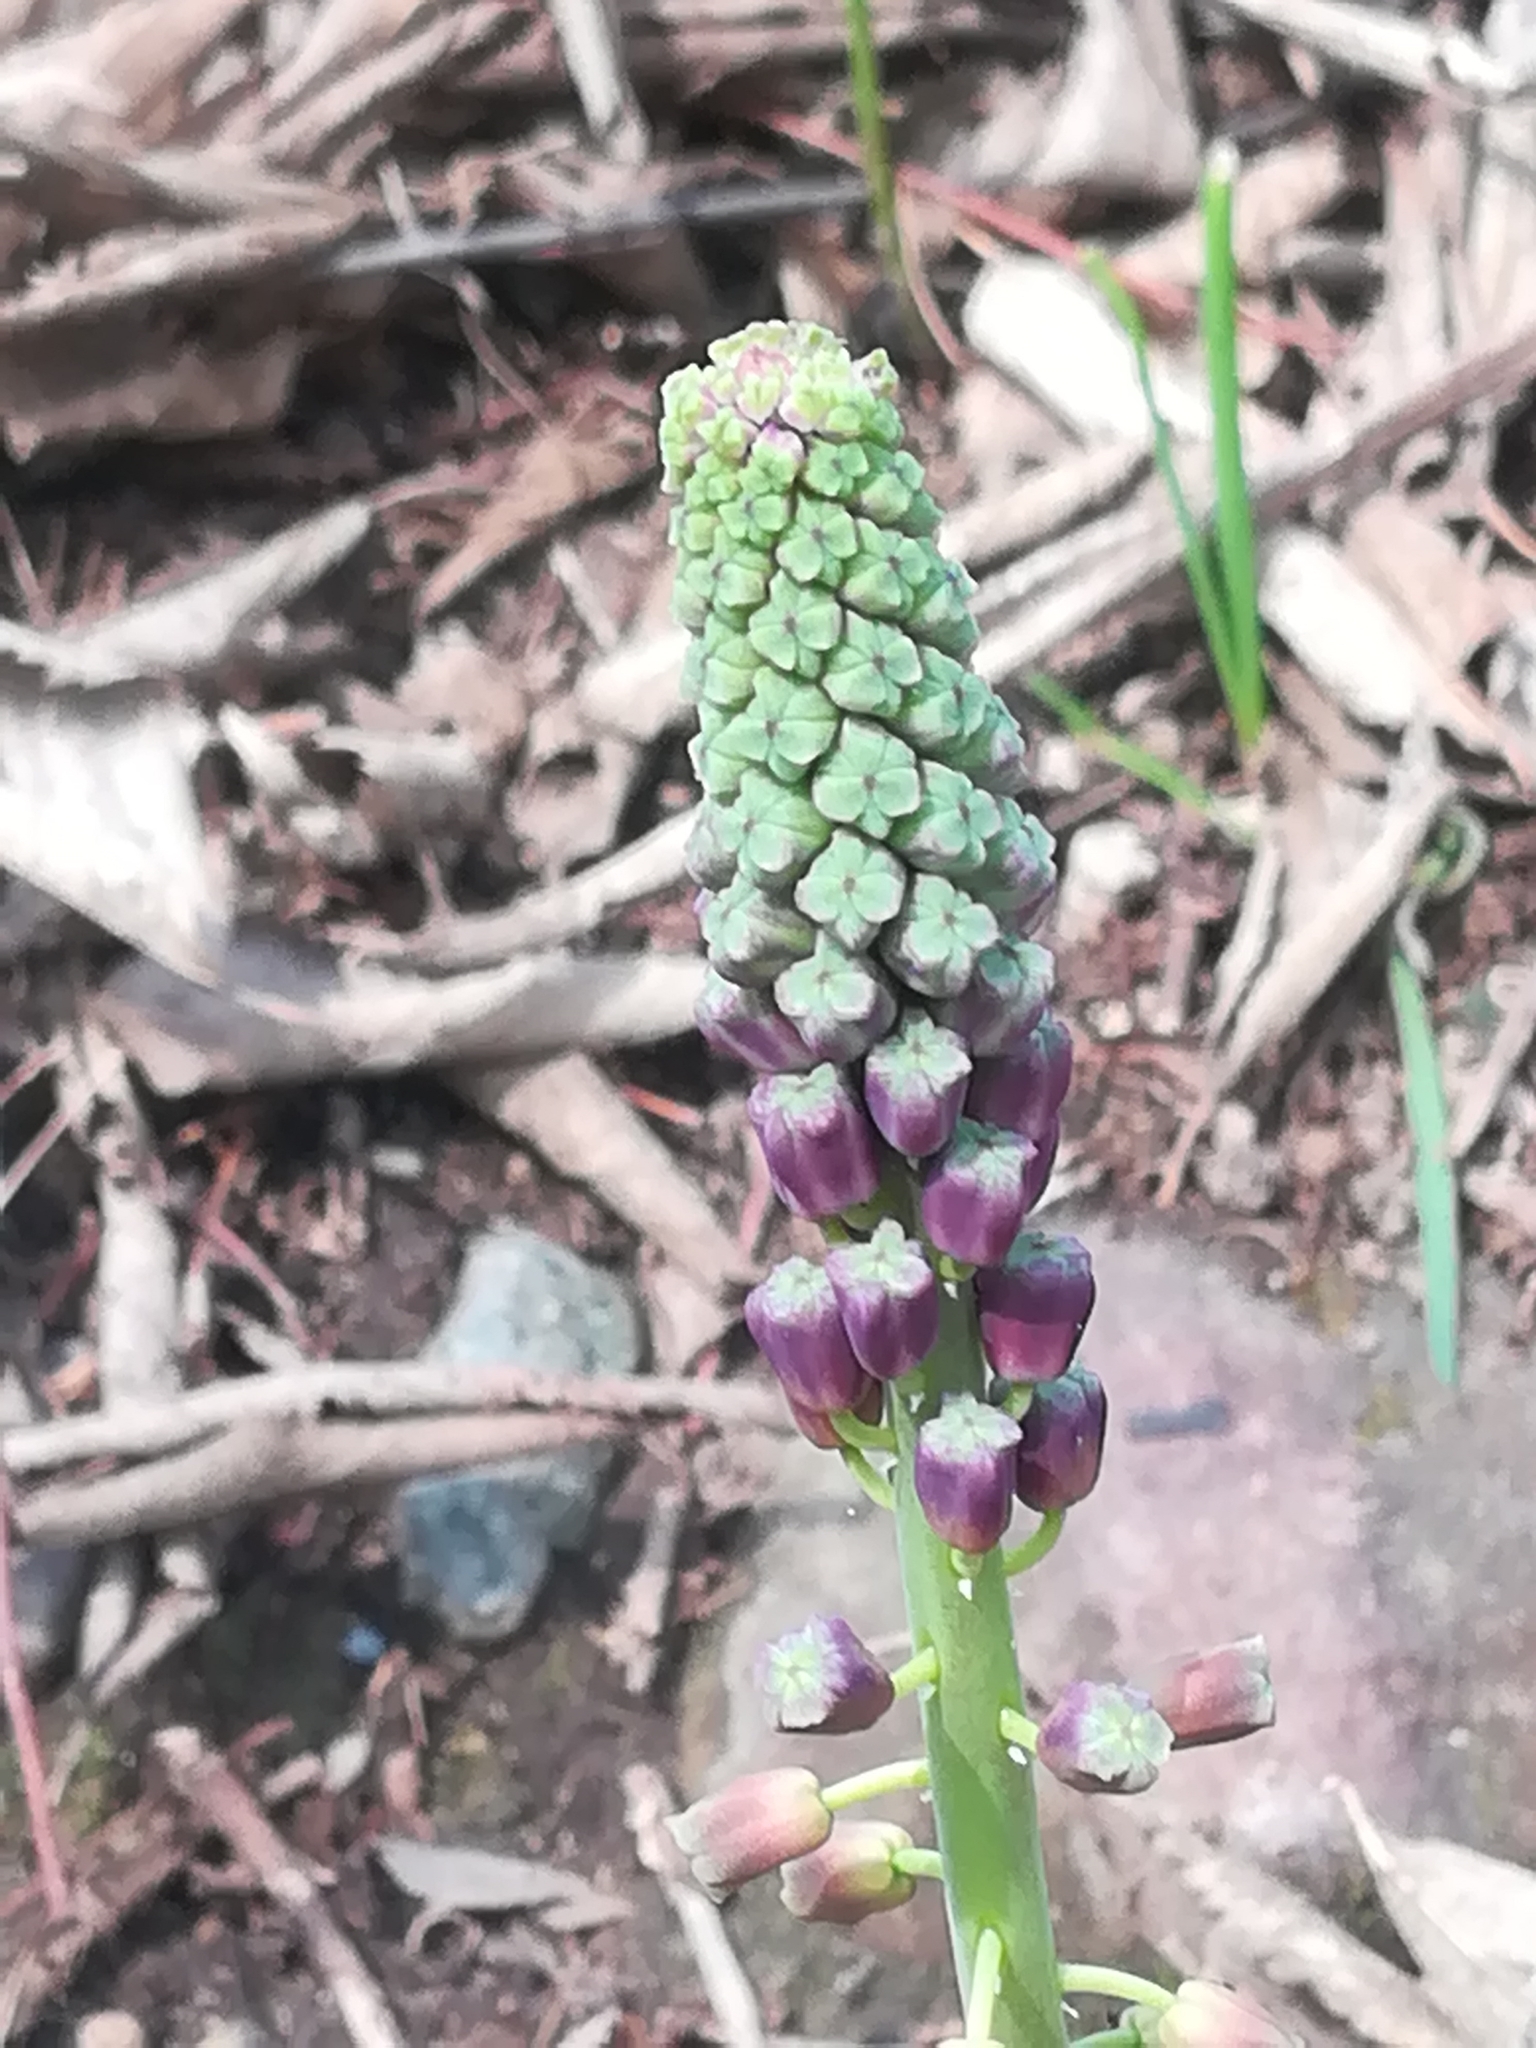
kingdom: Plantae
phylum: Tracheophyta
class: Liliopsida
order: Asparagales
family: Asparagaceae
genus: Muscari
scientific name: Muscari comosum
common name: Tassel hyacinth
